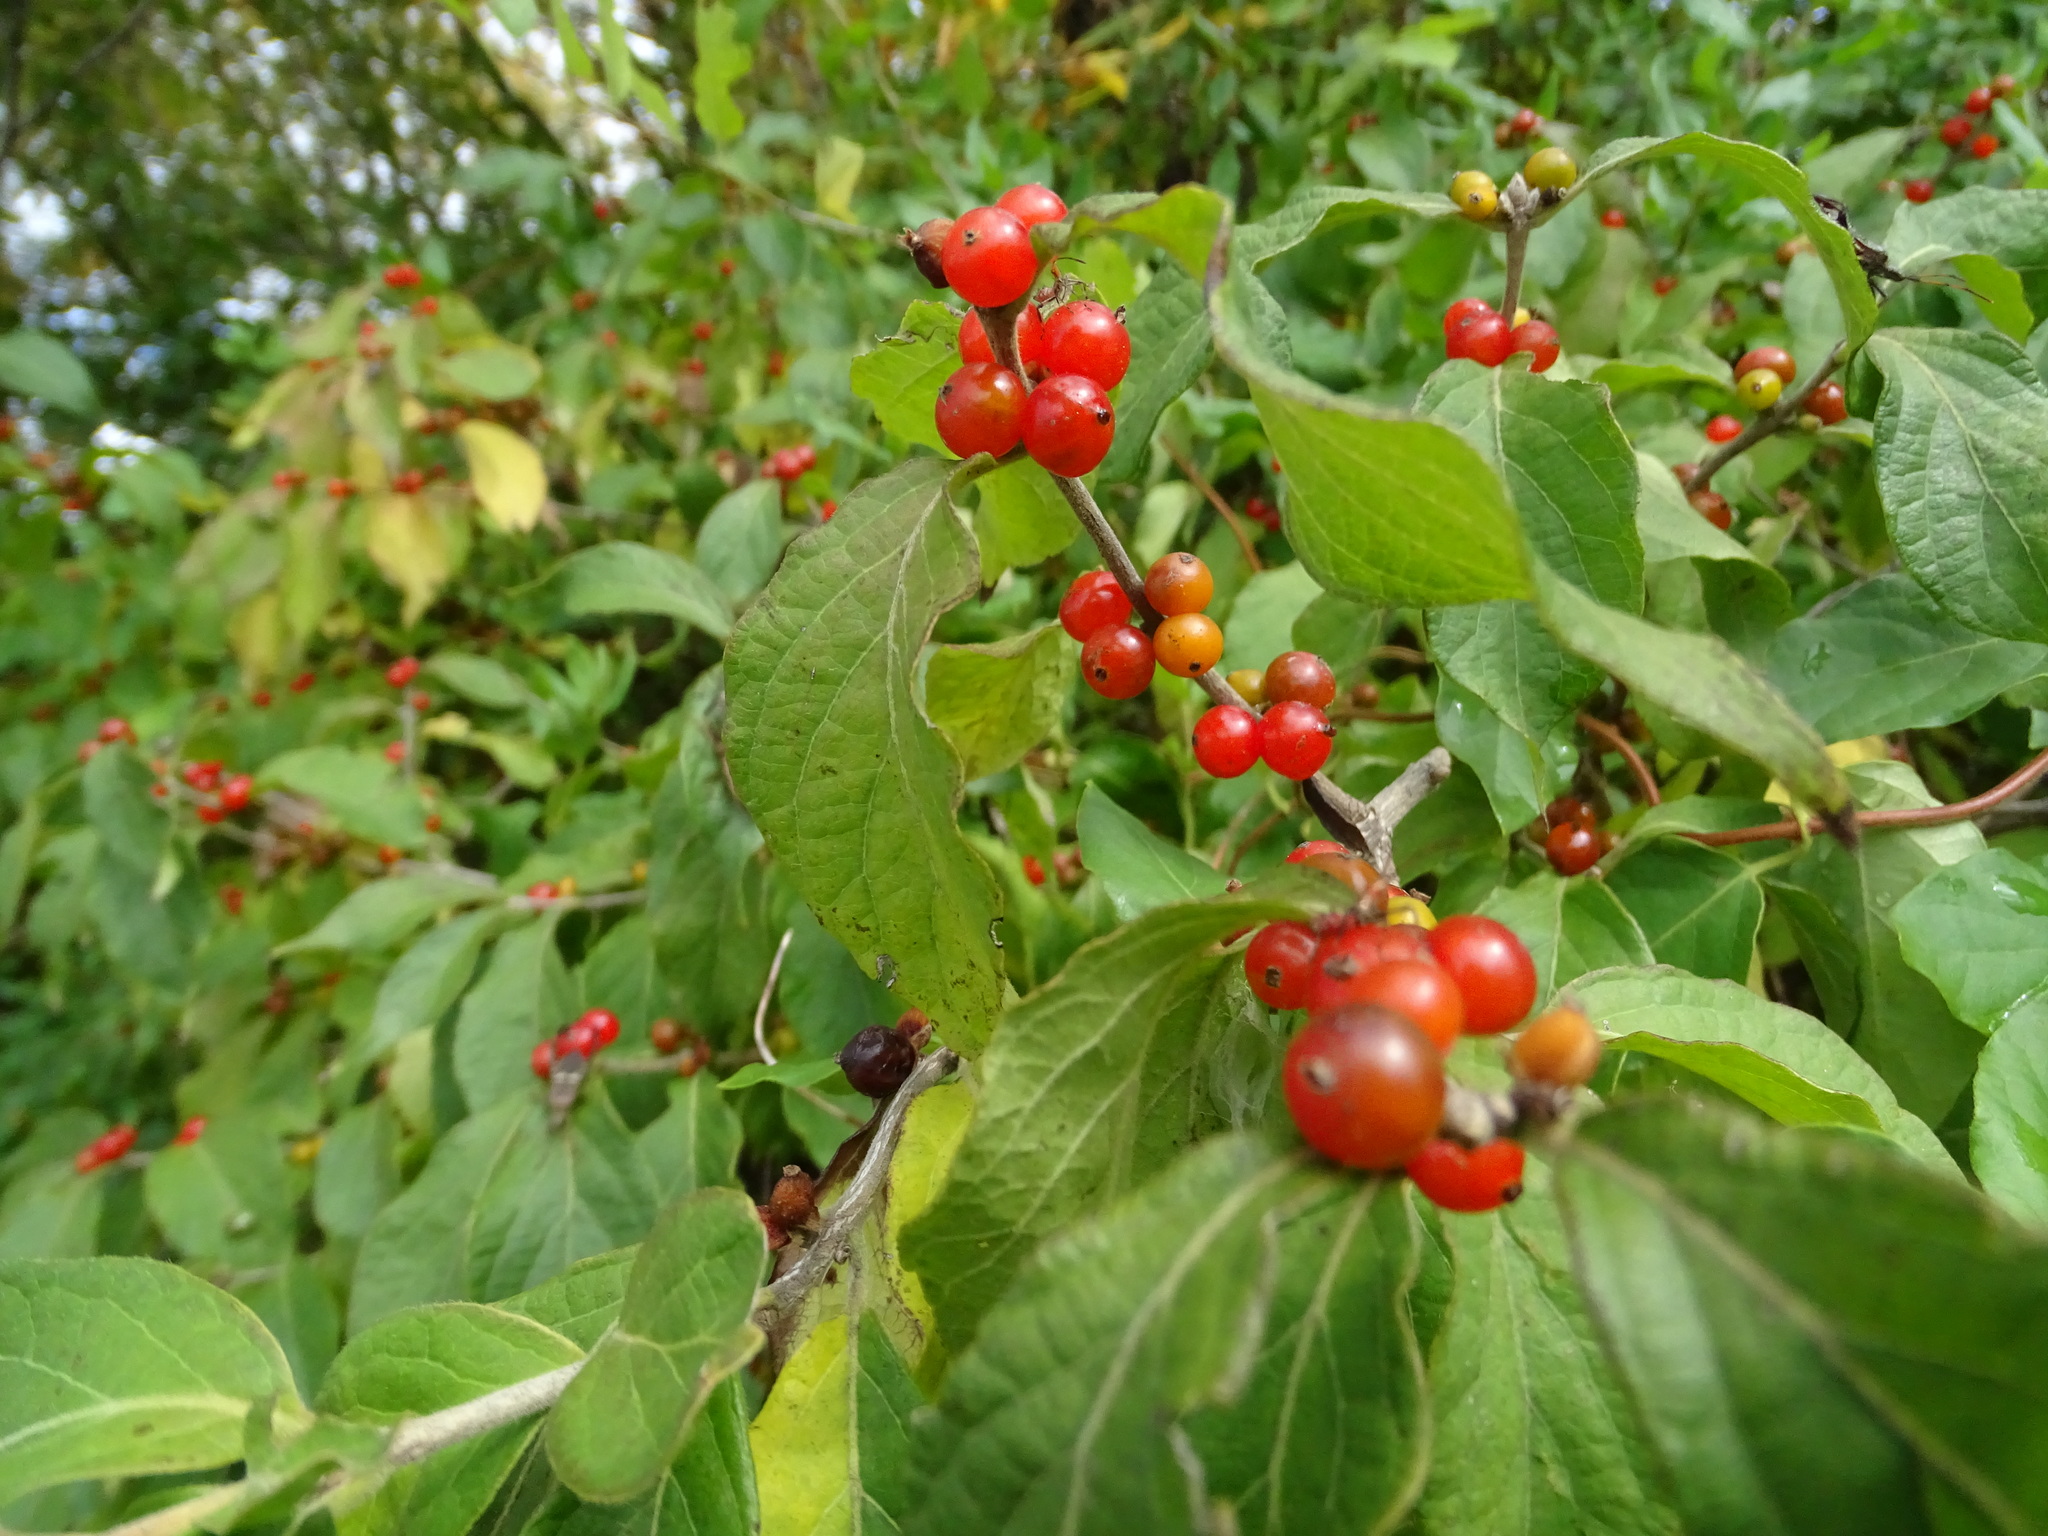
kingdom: Plantae
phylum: Tracheophyta
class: Magnoliopsida
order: Dipsacales
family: Caprifoliaceae
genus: Lonicera
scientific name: Lonicera maackii
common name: Amur honeysuckle
